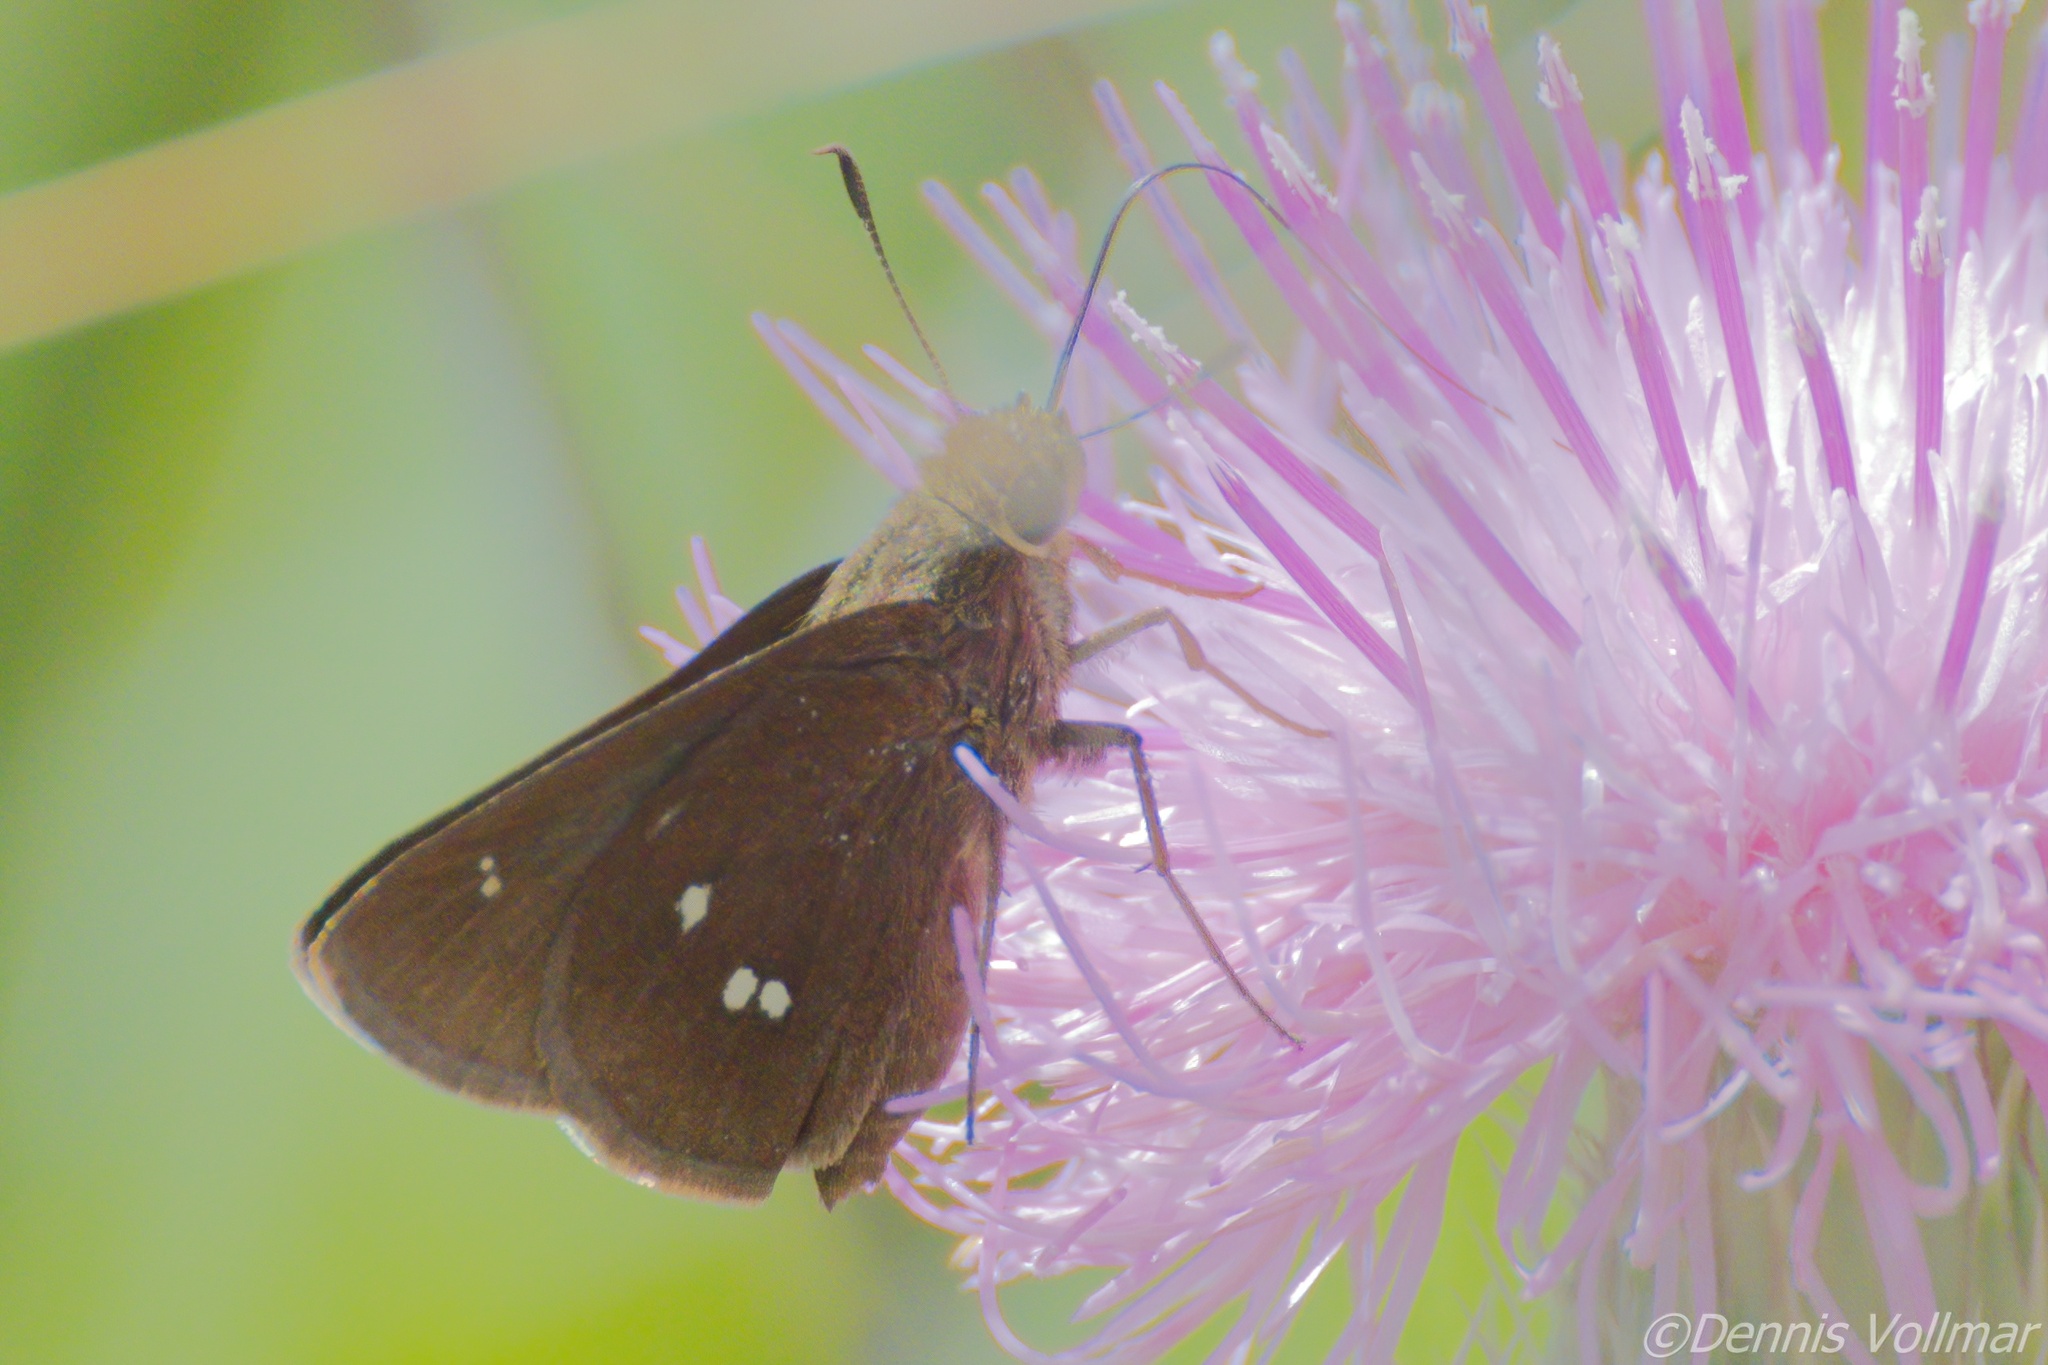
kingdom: Animalia
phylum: Arthropoda
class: Insecta
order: Lepidoptera
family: Hesperiidae
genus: Oligoria
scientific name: Oligoria maculata
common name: Twin-spot skipper
